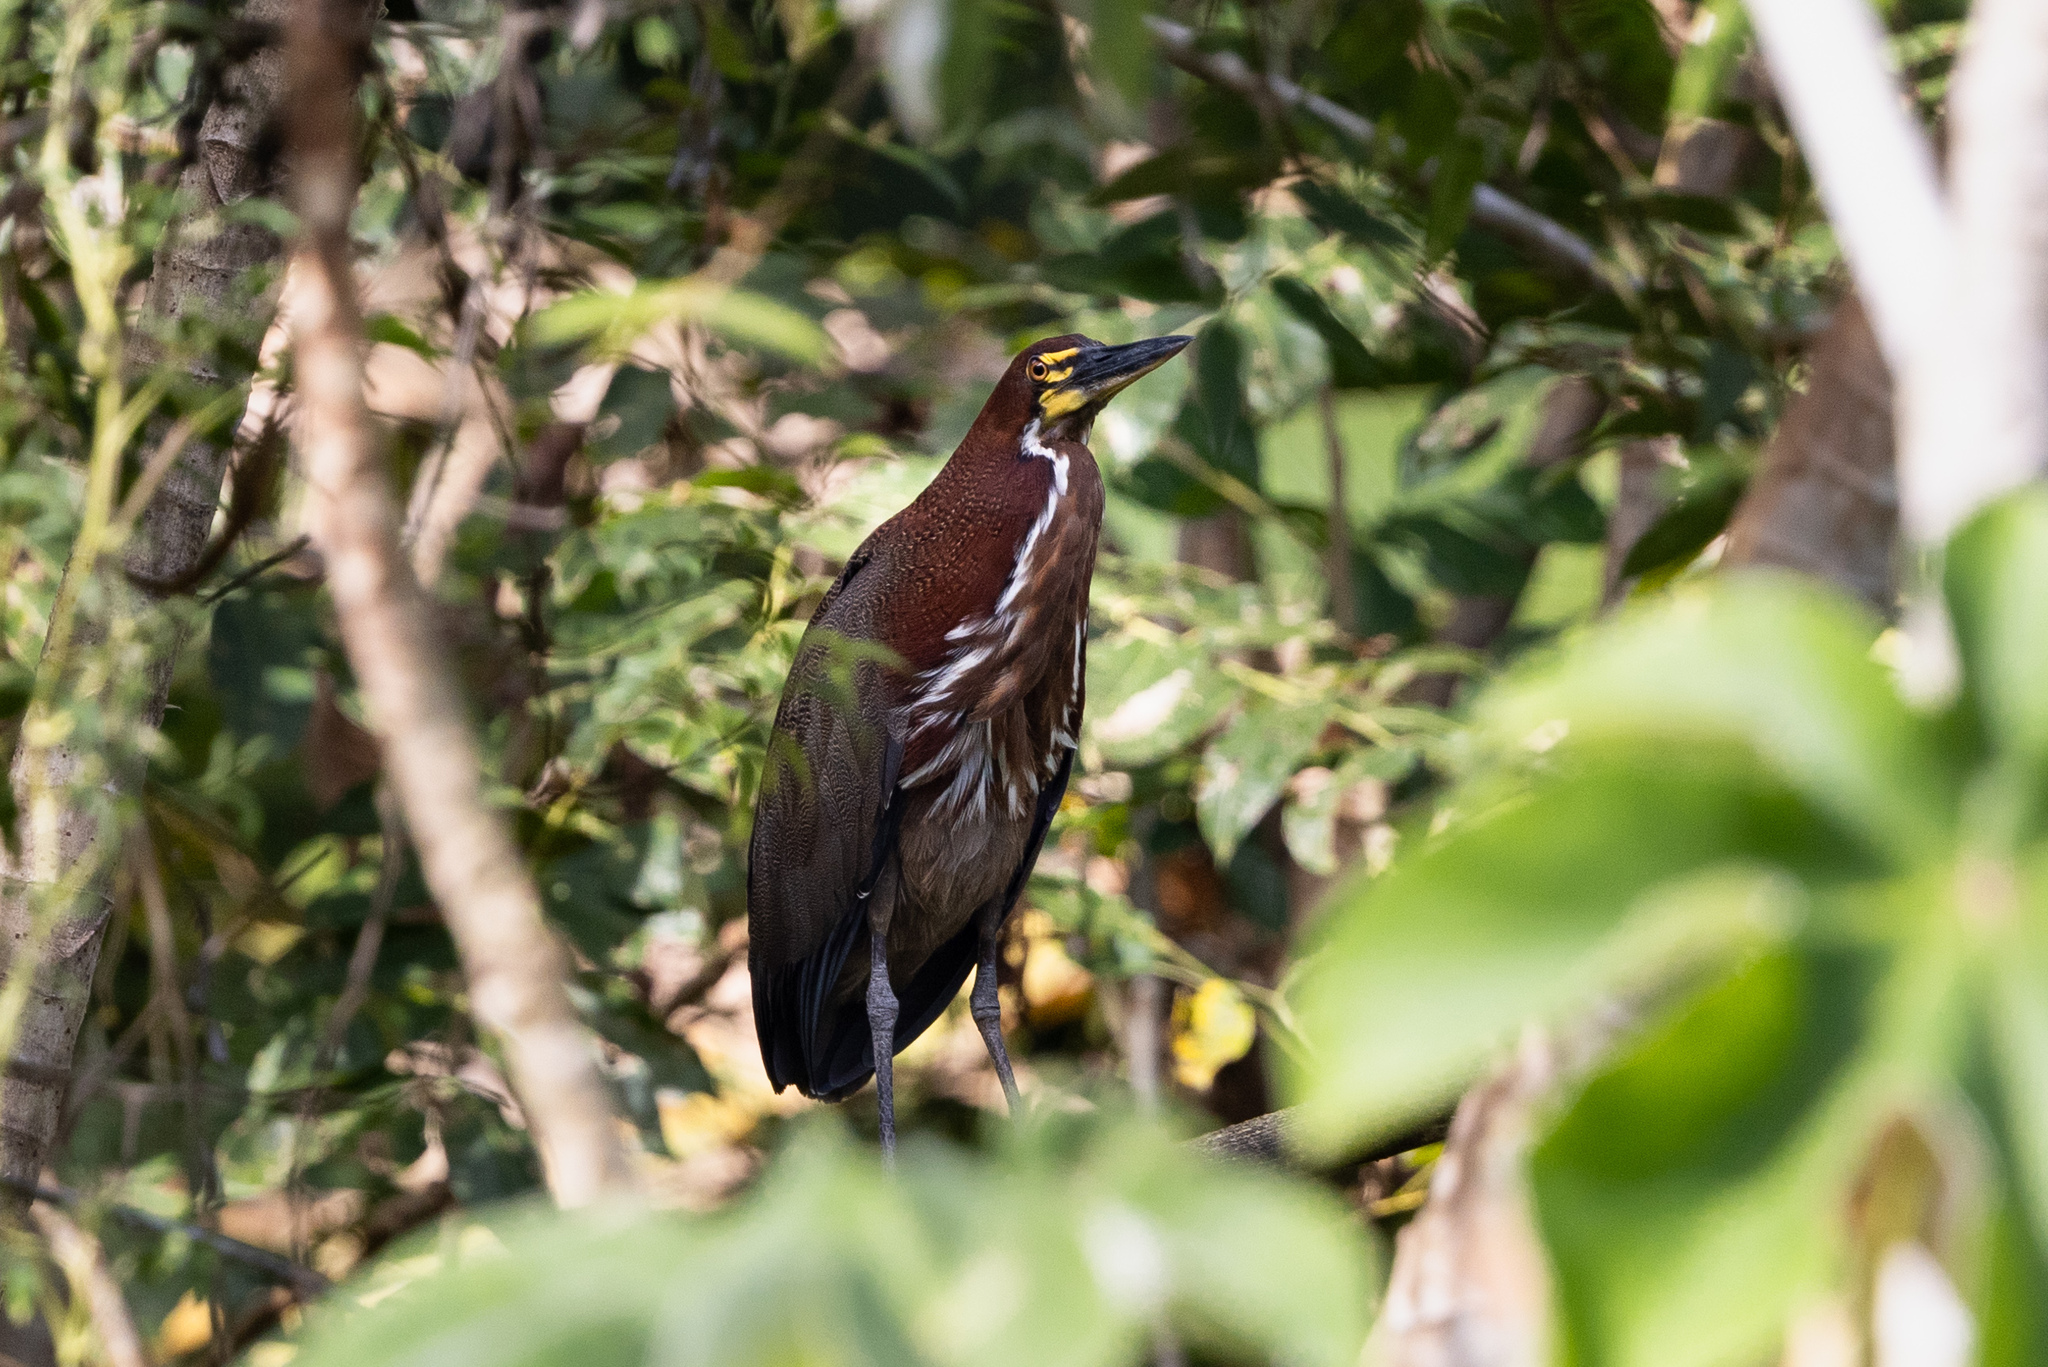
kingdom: Animalia
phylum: Chordata
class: Aves
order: Pelecaniformes
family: Ardeidae
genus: Tigrisoma
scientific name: Tigrisoma lineatum
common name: Rufescent tiger-heron
